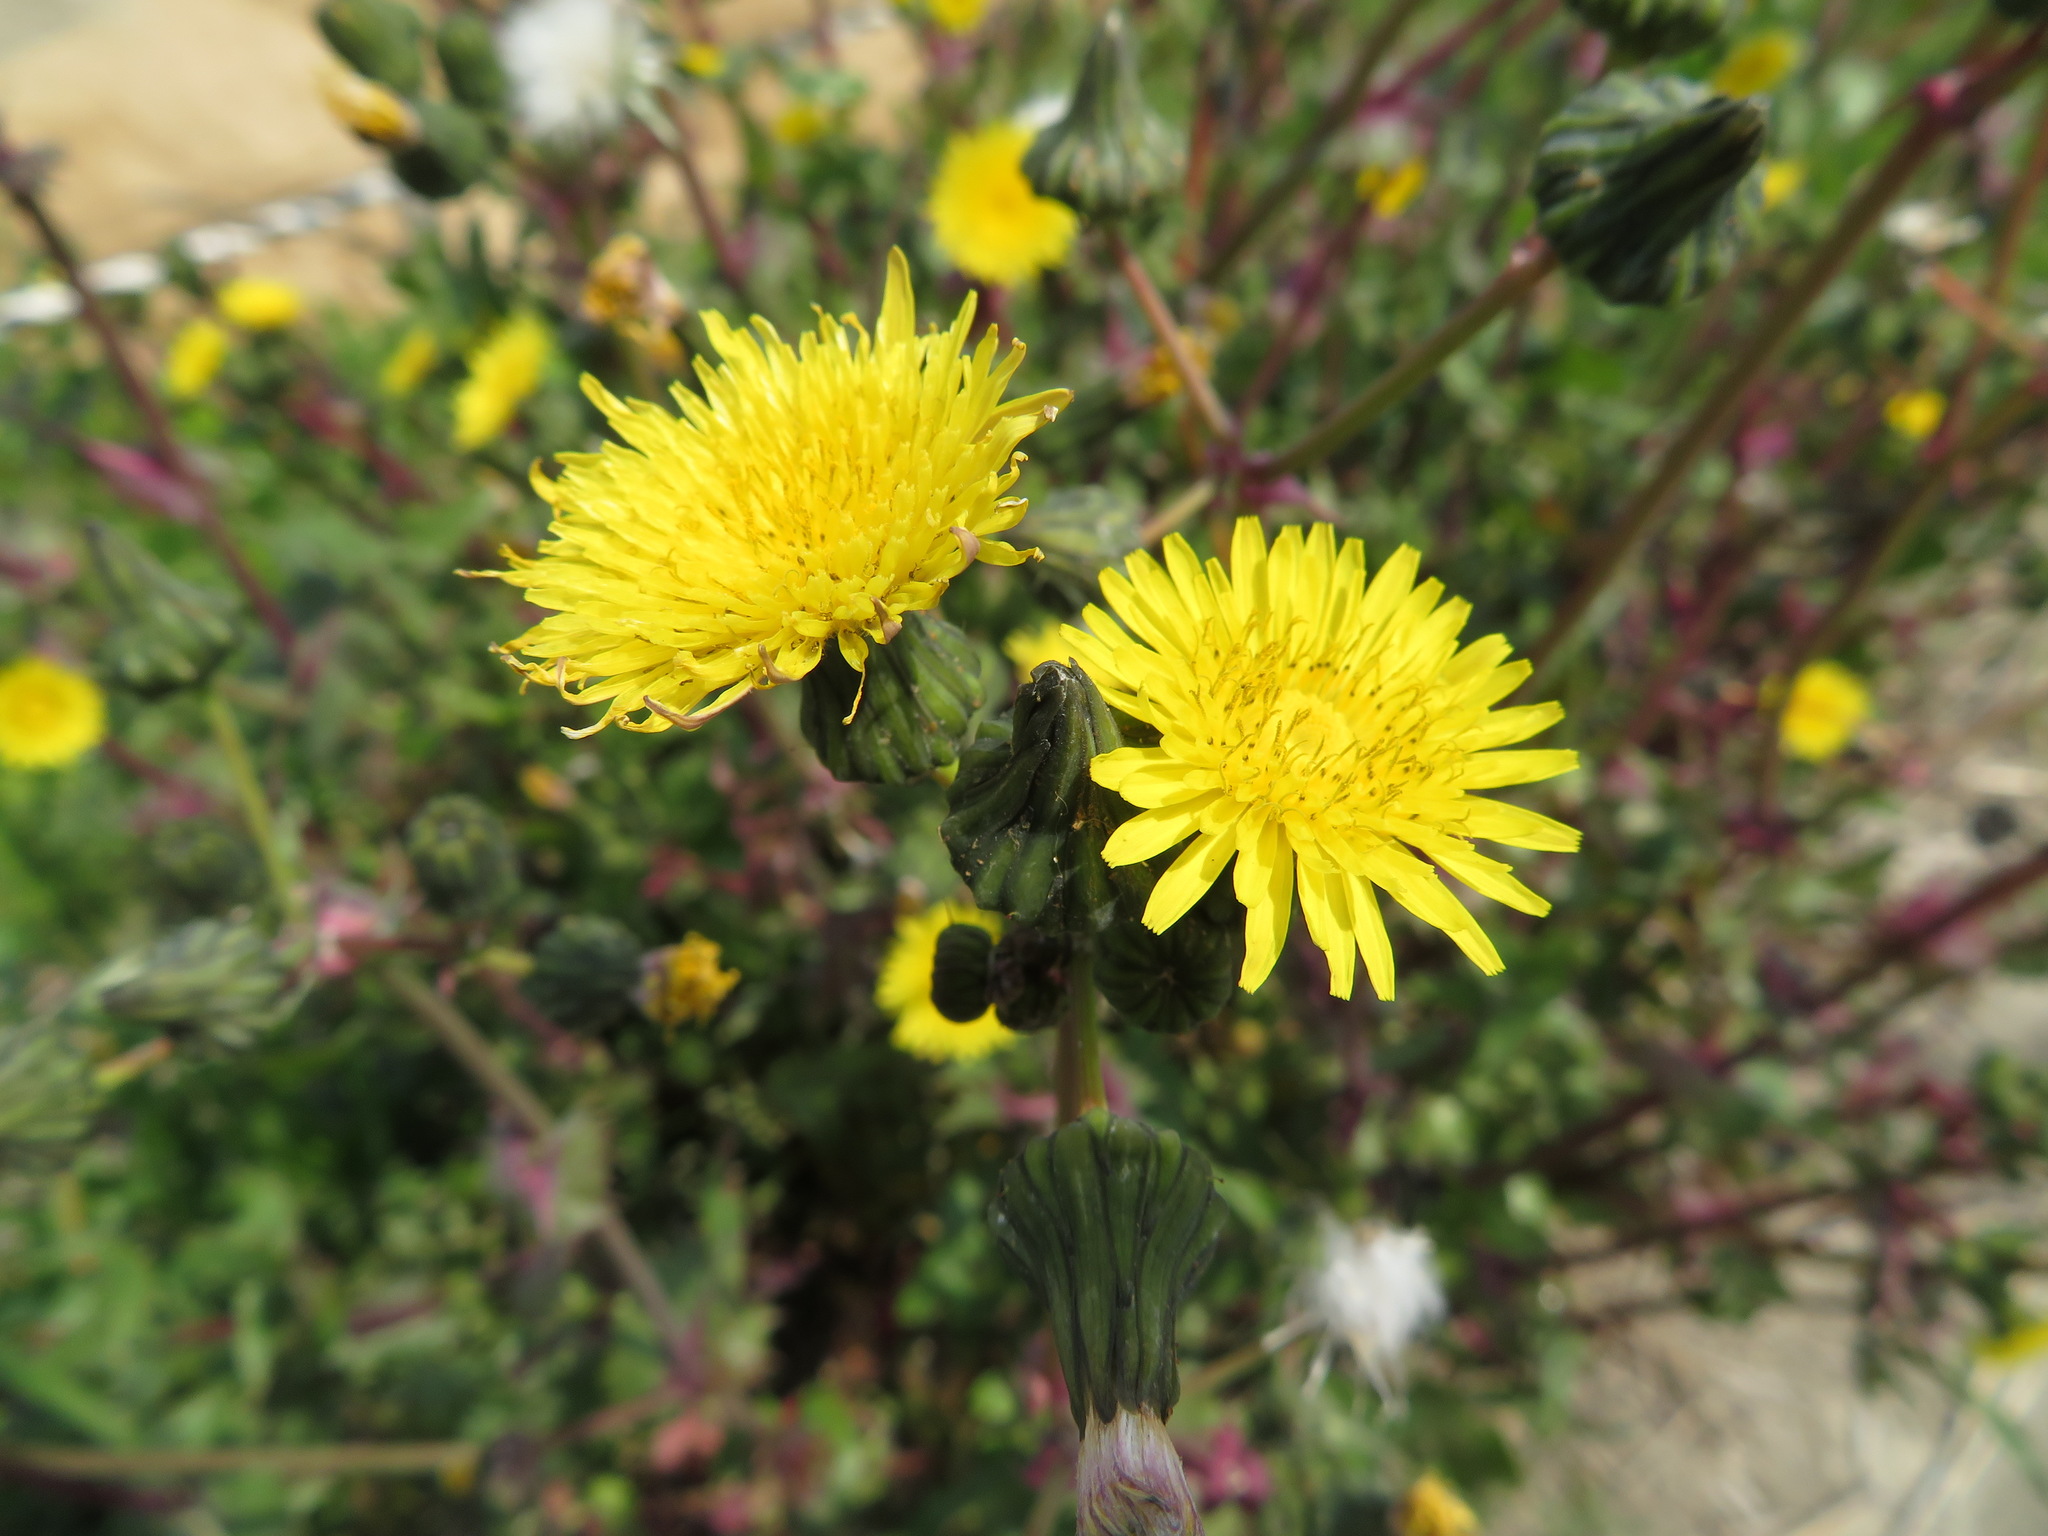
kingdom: Plantae
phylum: Tracheophyta
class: Magnoliopsida
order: Asterales
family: Asteraceae
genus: Sonchus
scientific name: Sonchus oleraceus
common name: Common sowthistle
